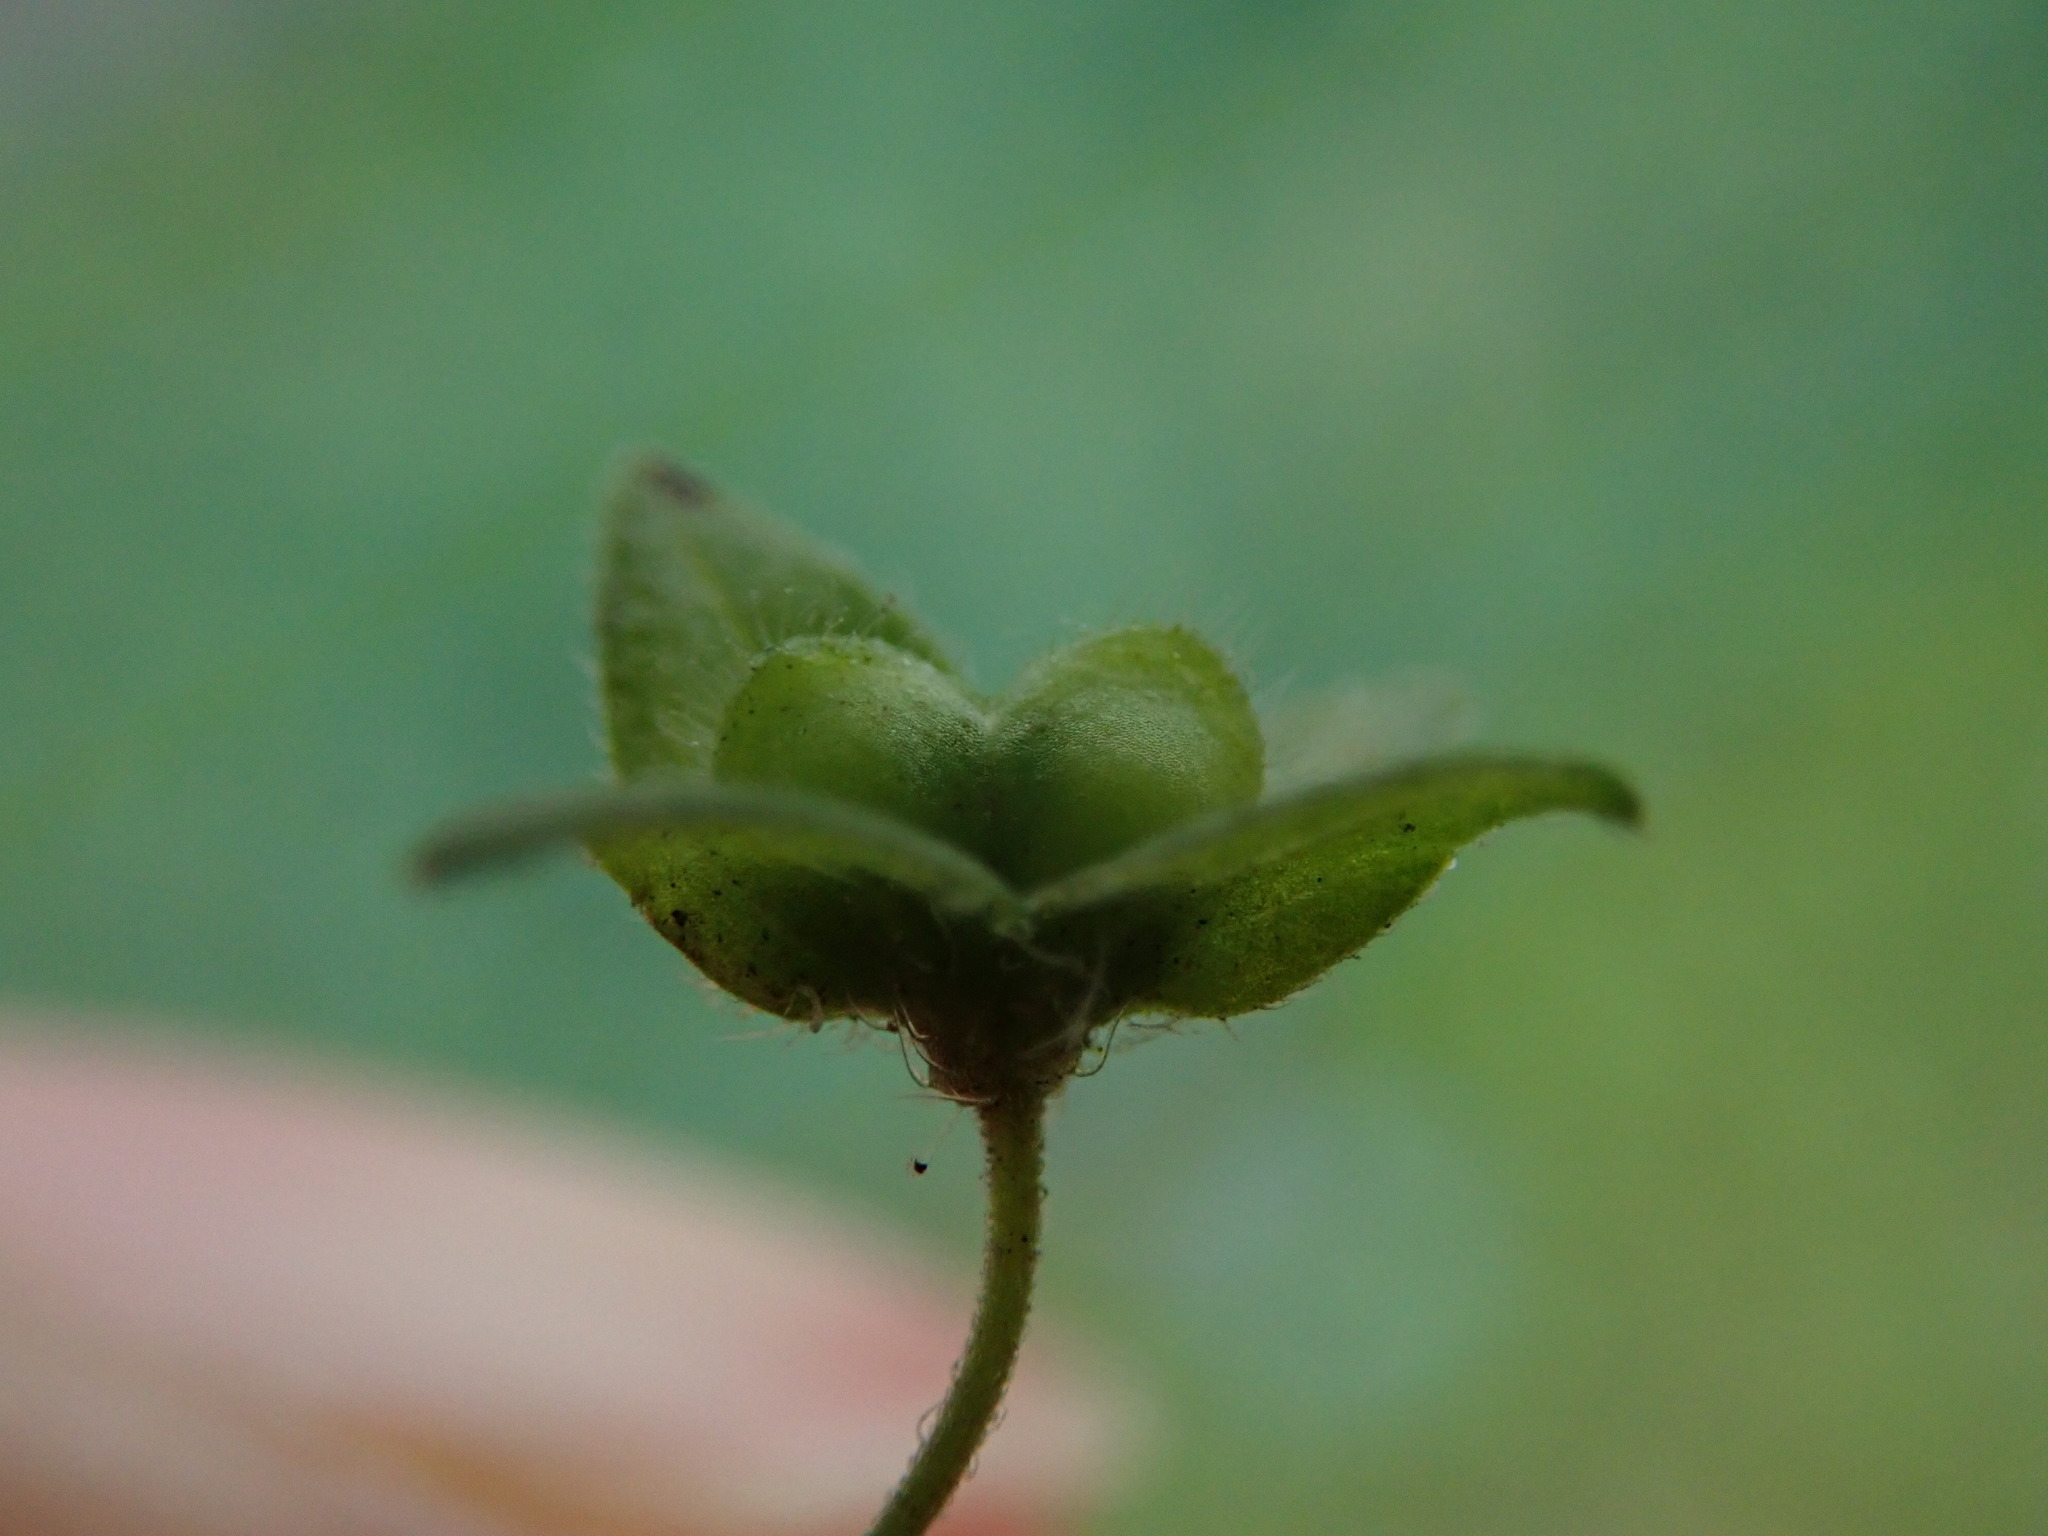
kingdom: Plantae
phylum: Tracheophyta
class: Magnoliopsida
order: Lamiales
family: Plantaginaceae
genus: Veronica
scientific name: Veronica persica
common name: Common field-speedwell
